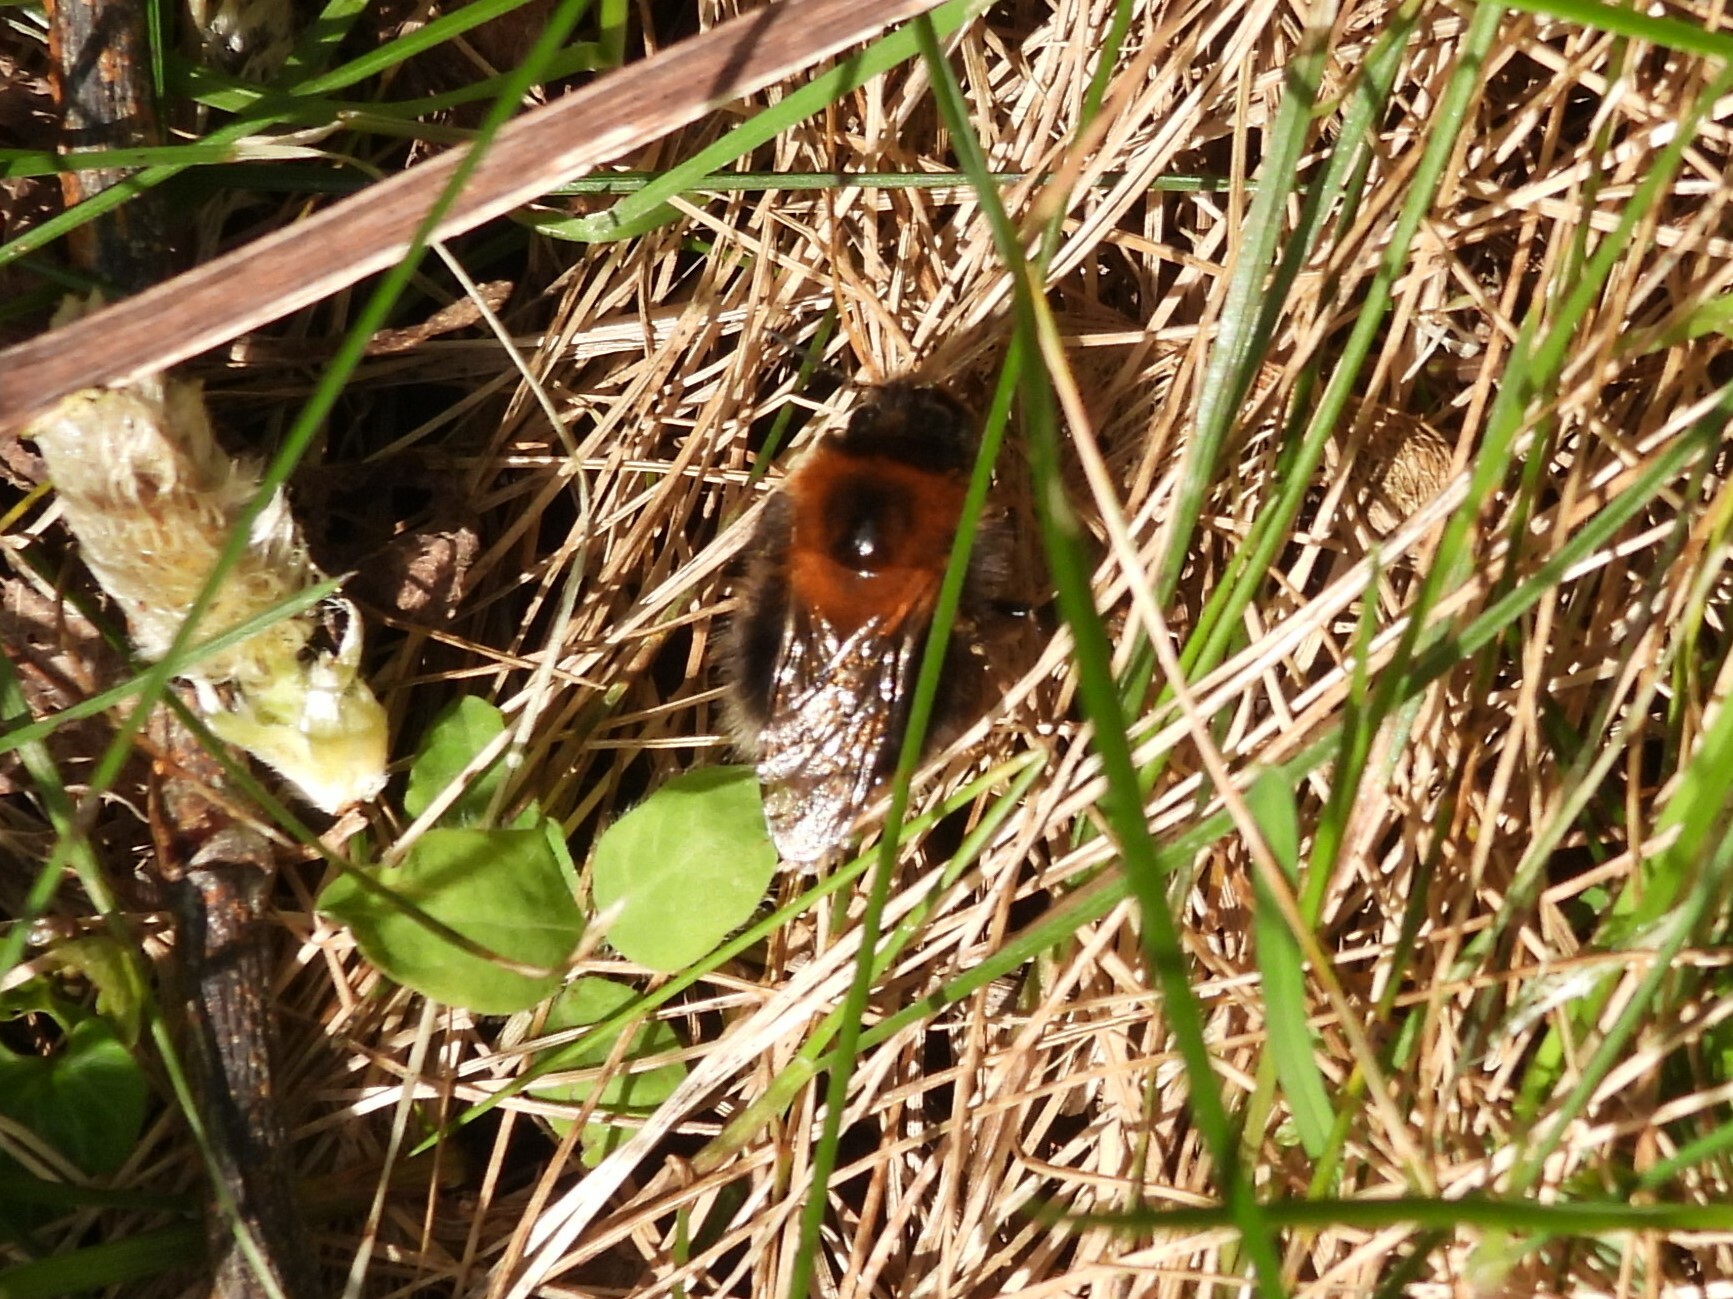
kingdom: Animalia
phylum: Arthropoda
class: Insecta
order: Hymenoptera
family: Apidae
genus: Bombus
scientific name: Bombus hypnorum
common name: New garden bumblebee
